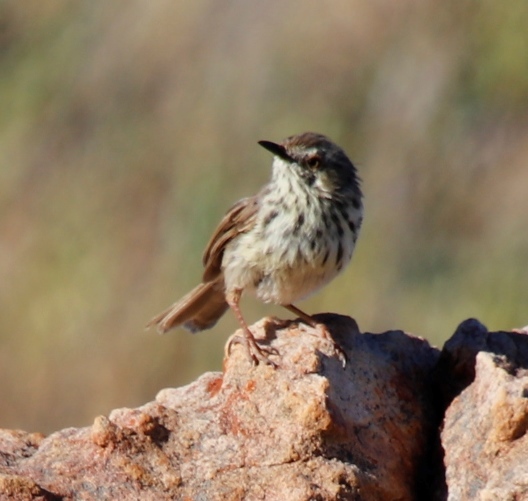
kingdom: Animalia
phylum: Chordata
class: Aves
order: Passeriformes
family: Cisticolidae
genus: Prinia
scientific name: Prinia maculosa
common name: Karoo prinia
